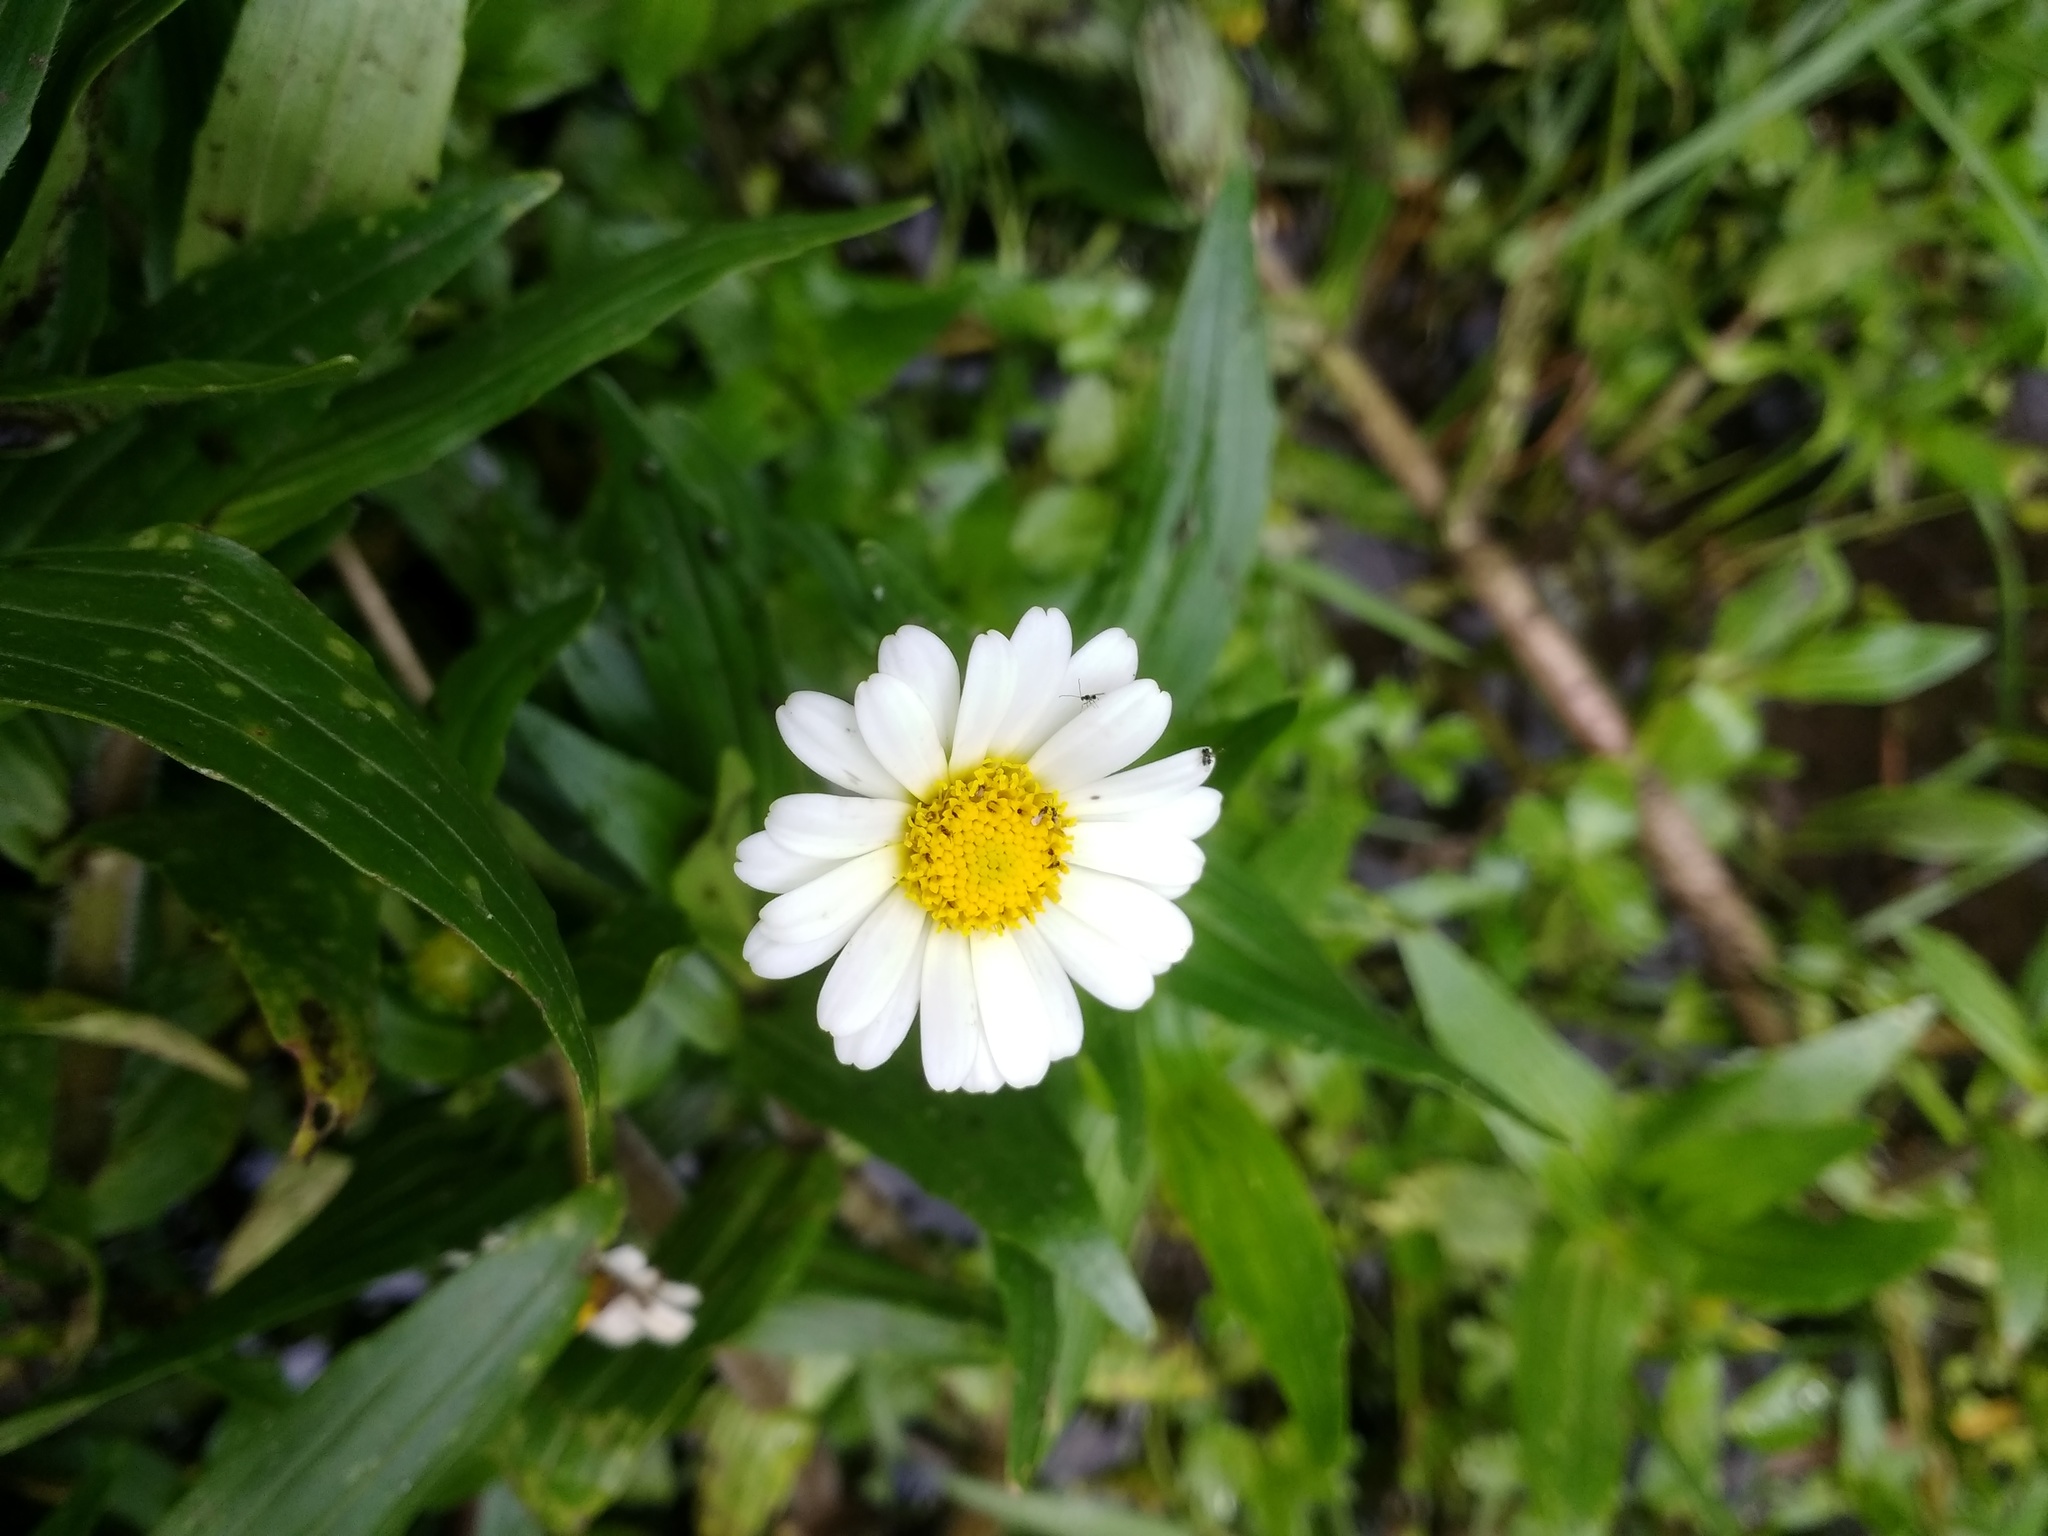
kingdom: Plantae
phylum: Tracheophyta
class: Magnoliopsida
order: Asterales
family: Asteraceae
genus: Jaegeria
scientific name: Jaegeria bellidiflora
